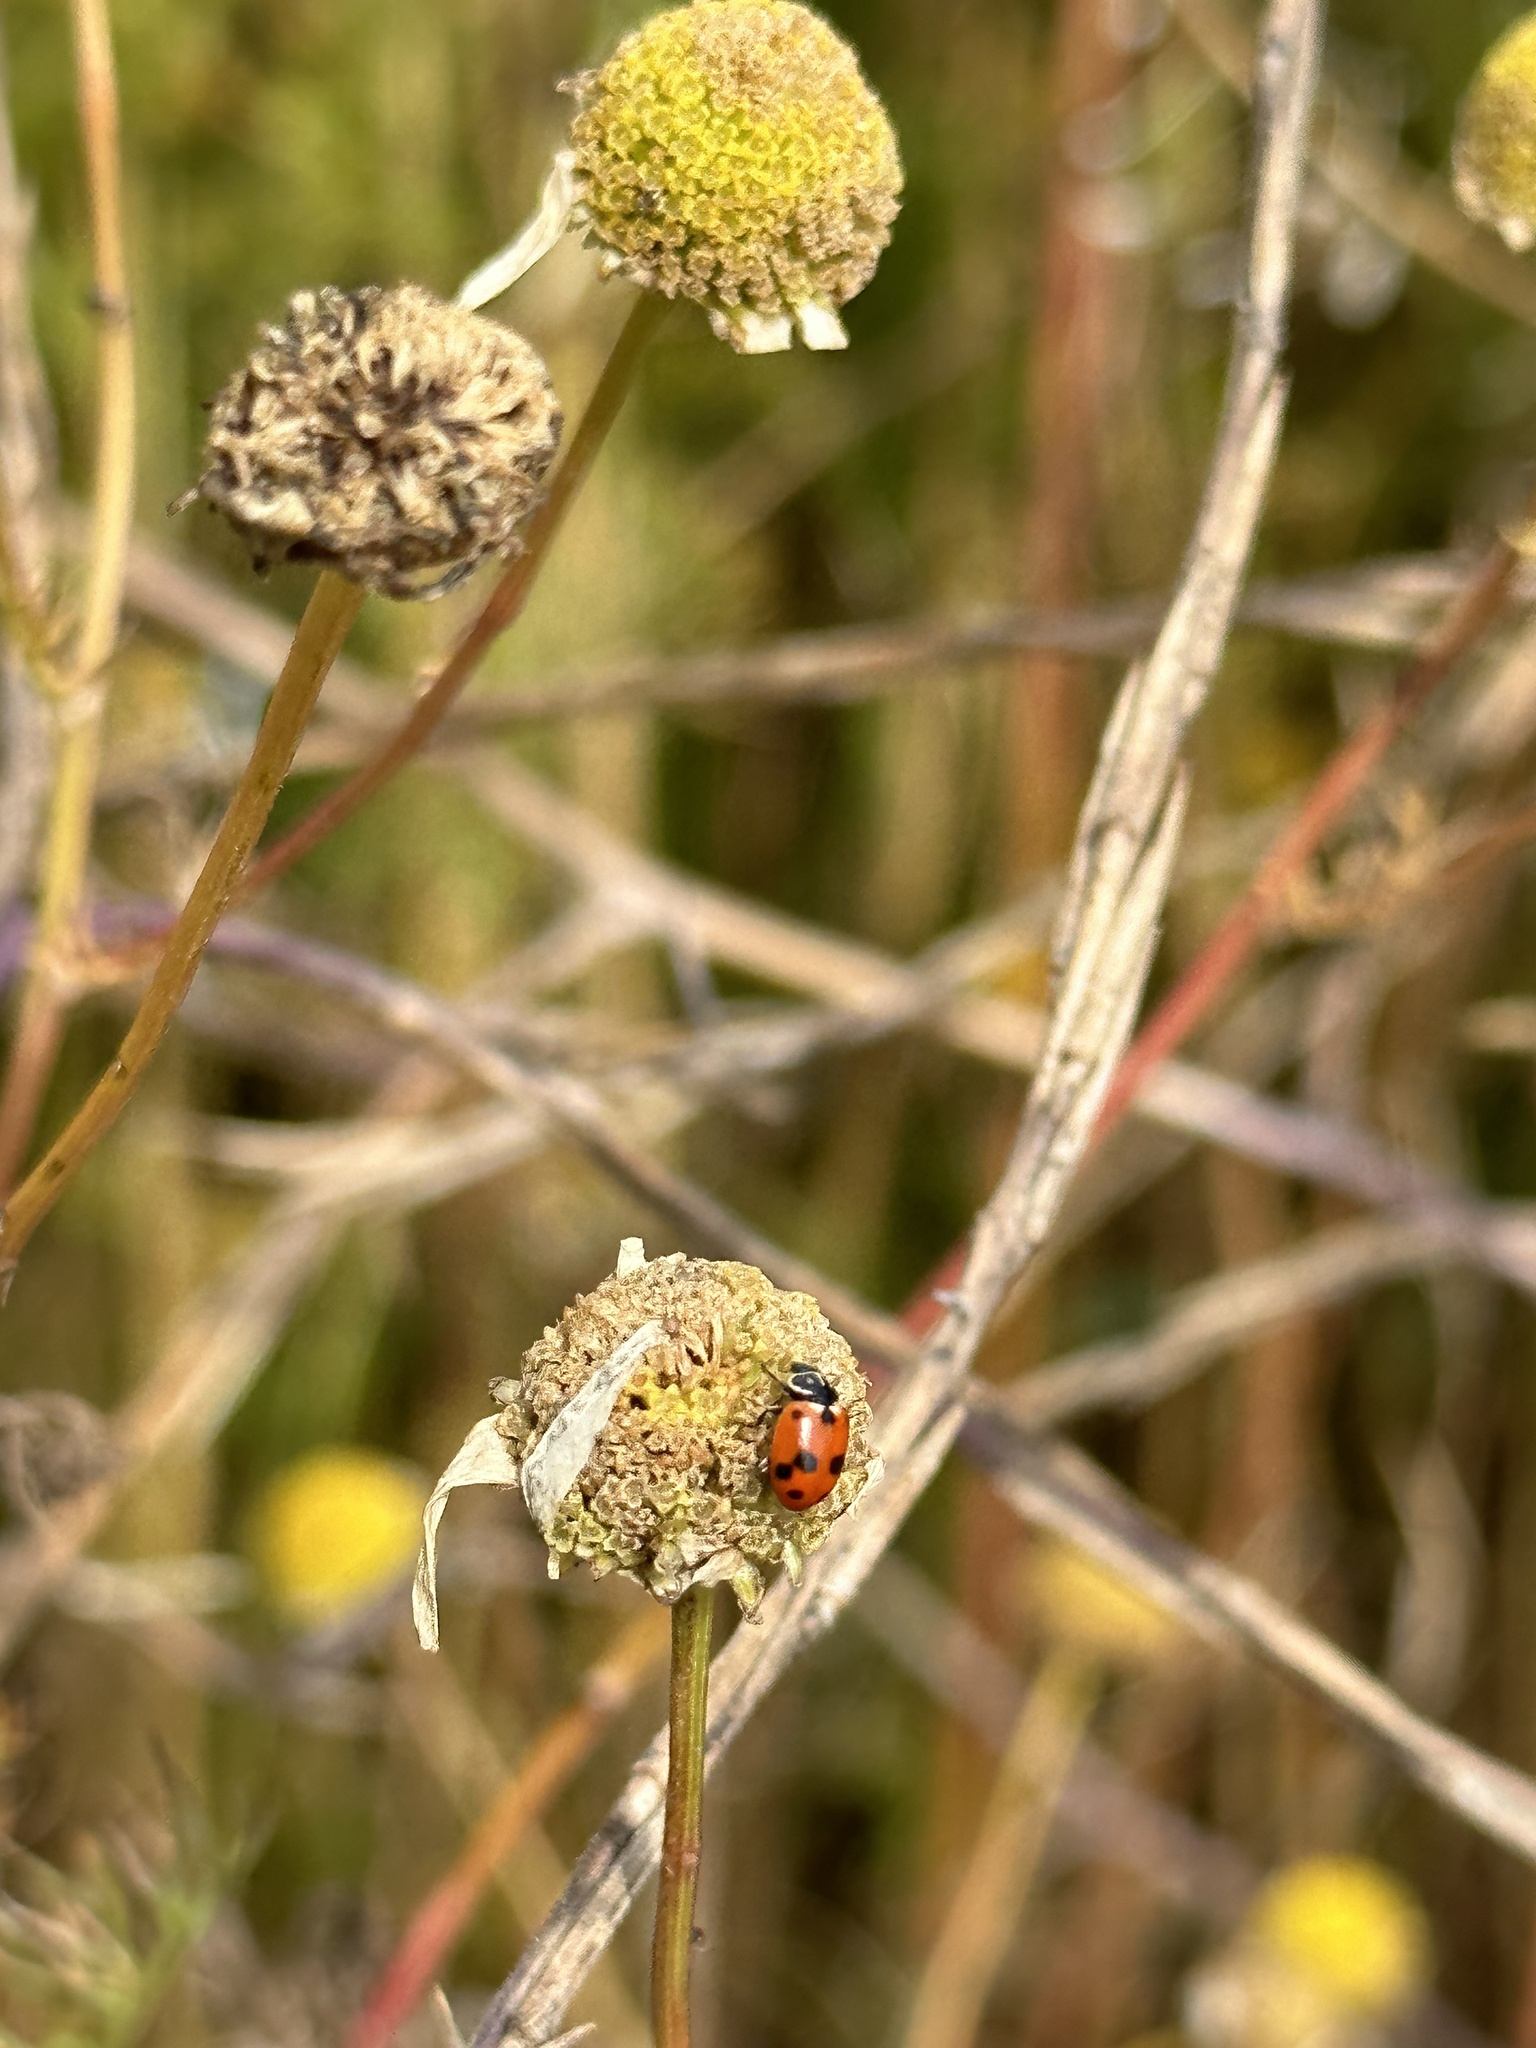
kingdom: Animalia
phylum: Arthropoda
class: Insecta
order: Coleoptera
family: Coccinellidae
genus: Hippodamia
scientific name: Hippodamia variegata
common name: Ladybird beetle
